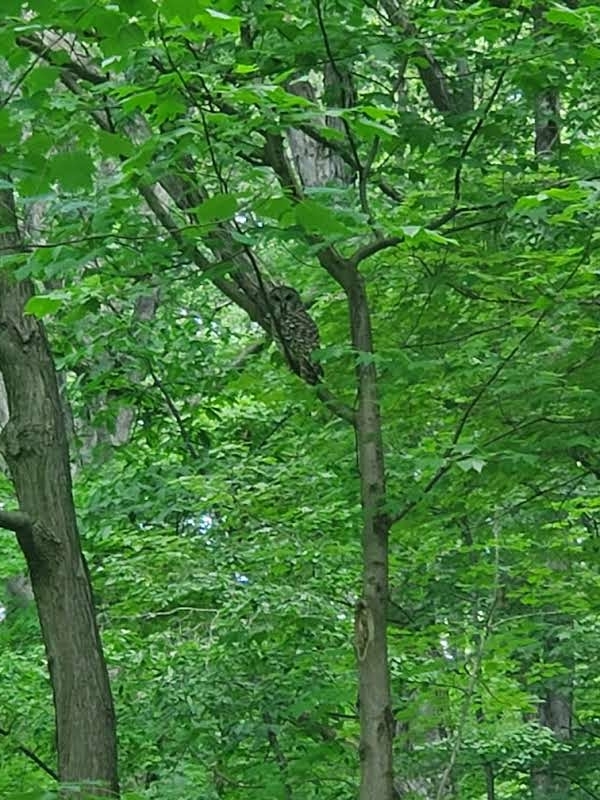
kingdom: Animalia
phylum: Chordata
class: Aves
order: Strigiformes
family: Strigidae
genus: Strix
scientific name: Strix varia
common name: Barred owl
